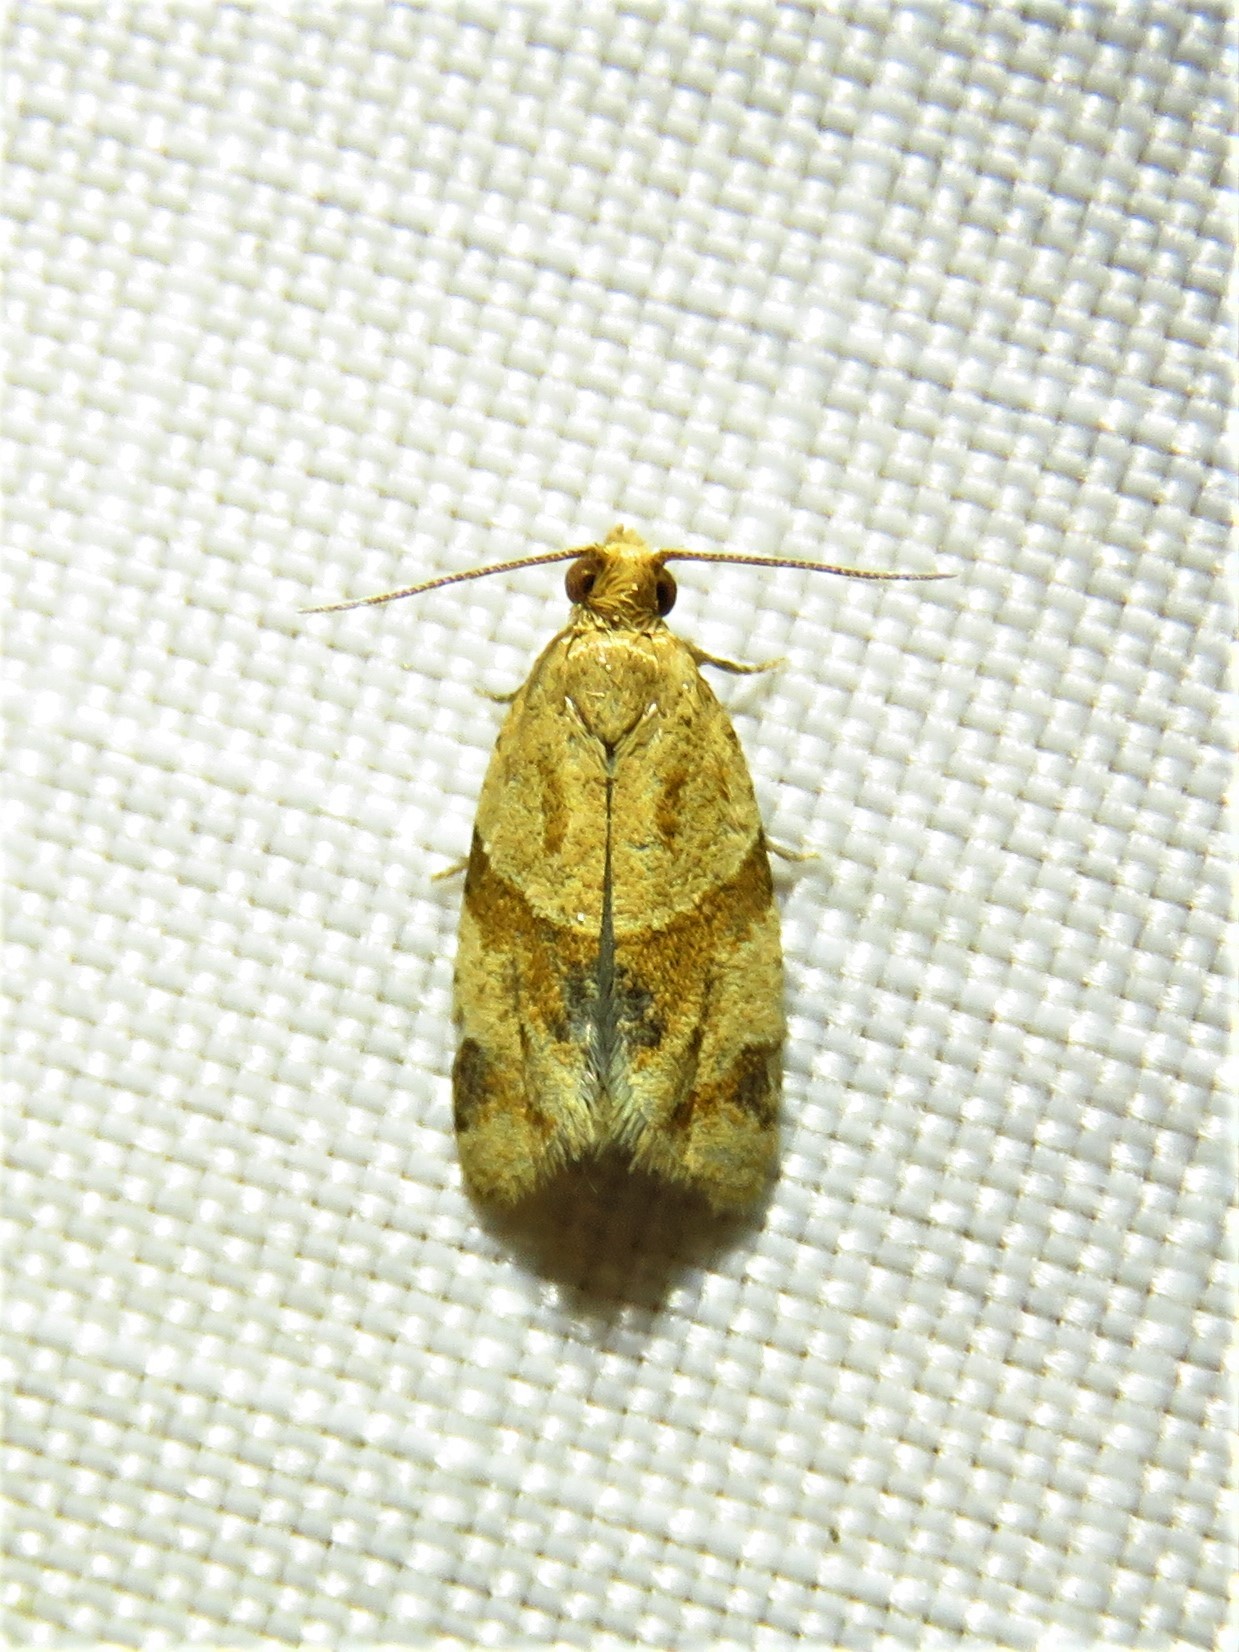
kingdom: Animalia
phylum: Arthropoda
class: Insecta
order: Lepidoptera
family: Tortricidae
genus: Clepsis
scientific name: Clepsis peritana
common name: Garden tortrix
